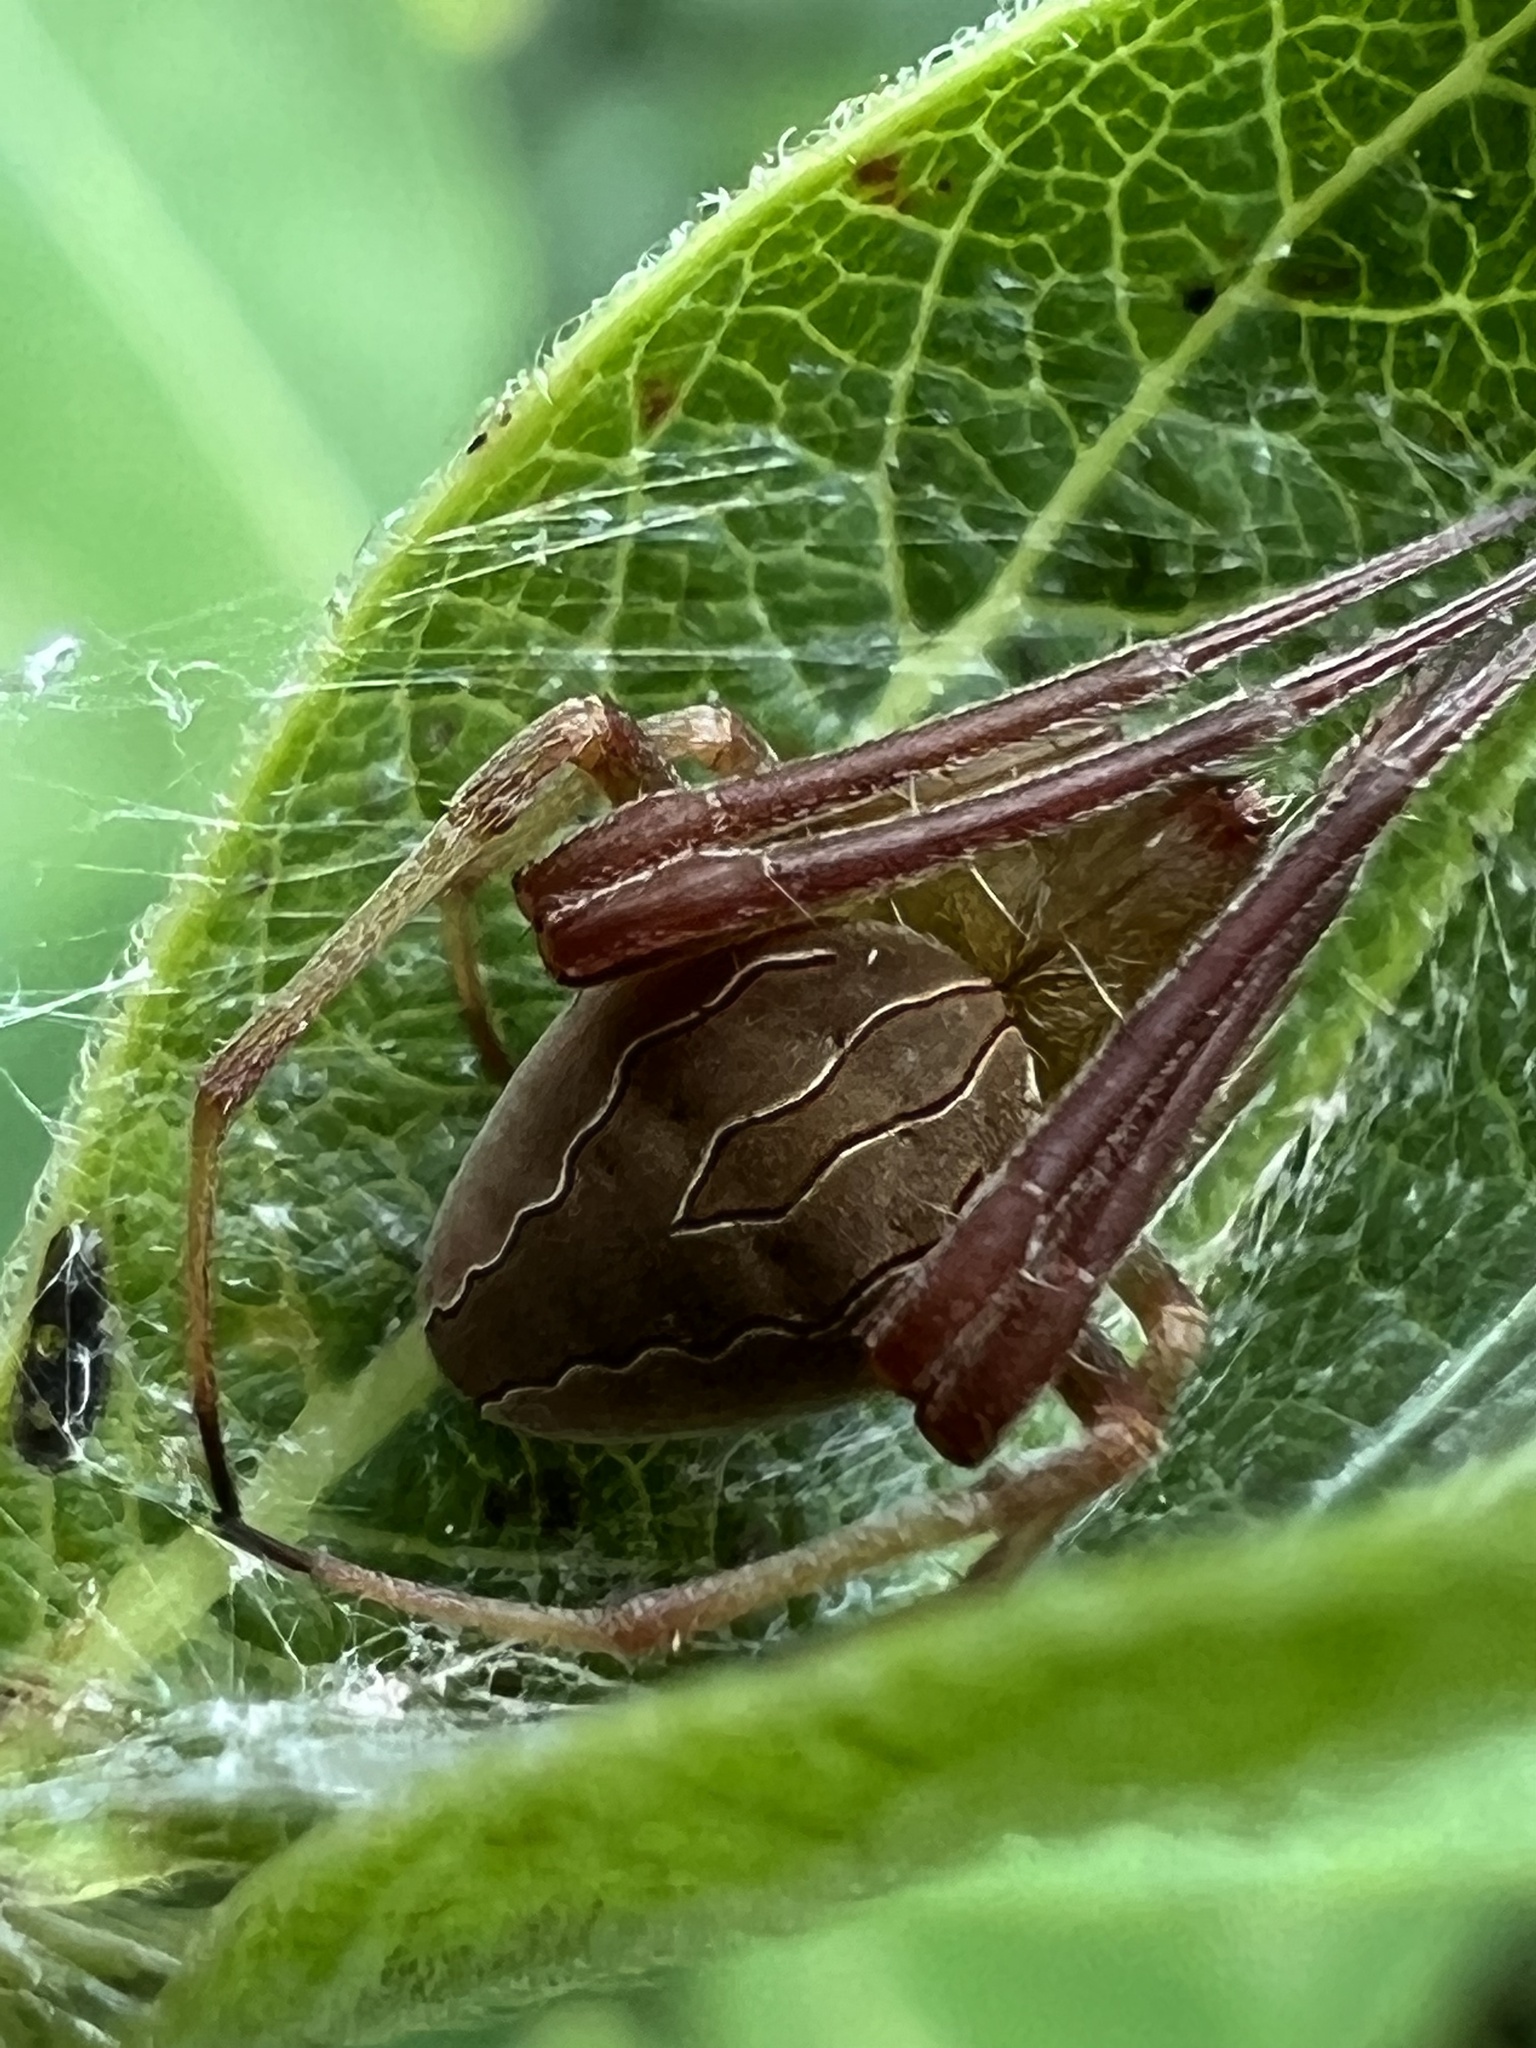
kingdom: Animalia
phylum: Arthropoda
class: Arachnida
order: Araneae
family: Araneidae
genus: Acacesia
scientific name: Acacesia hamata
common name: Orb weavers
